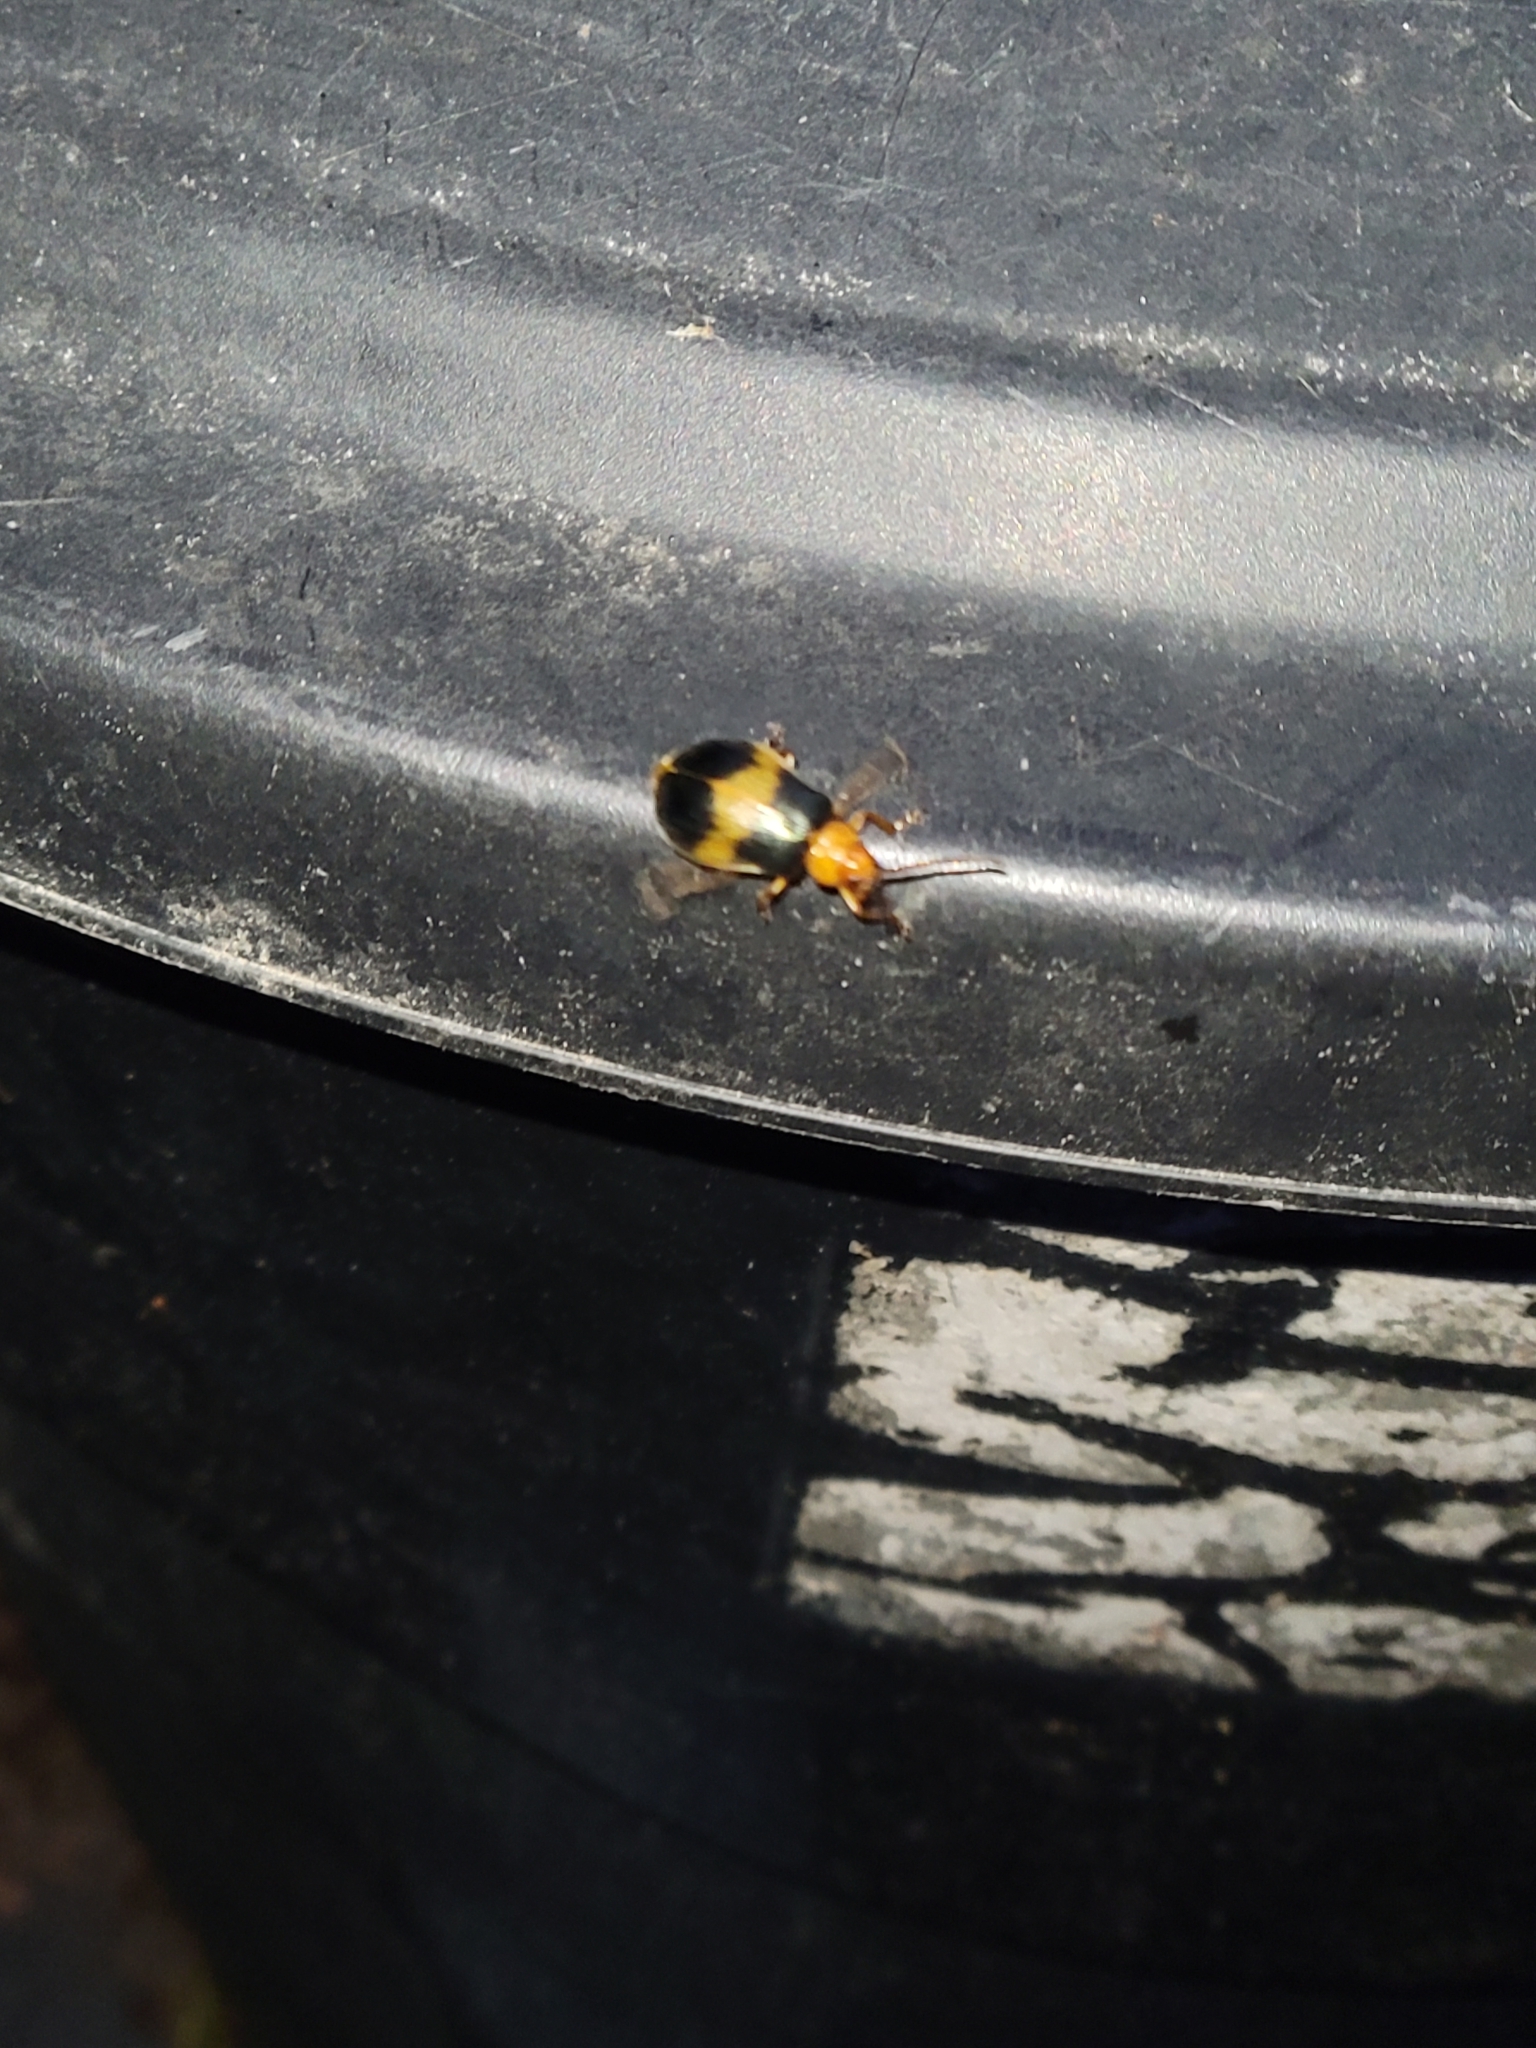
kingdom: Animalia
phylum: Arthropoda
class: Insecta
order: Coleoptera
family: Chrysomelidae
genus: Monocesta
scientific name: Monocesta coryli
